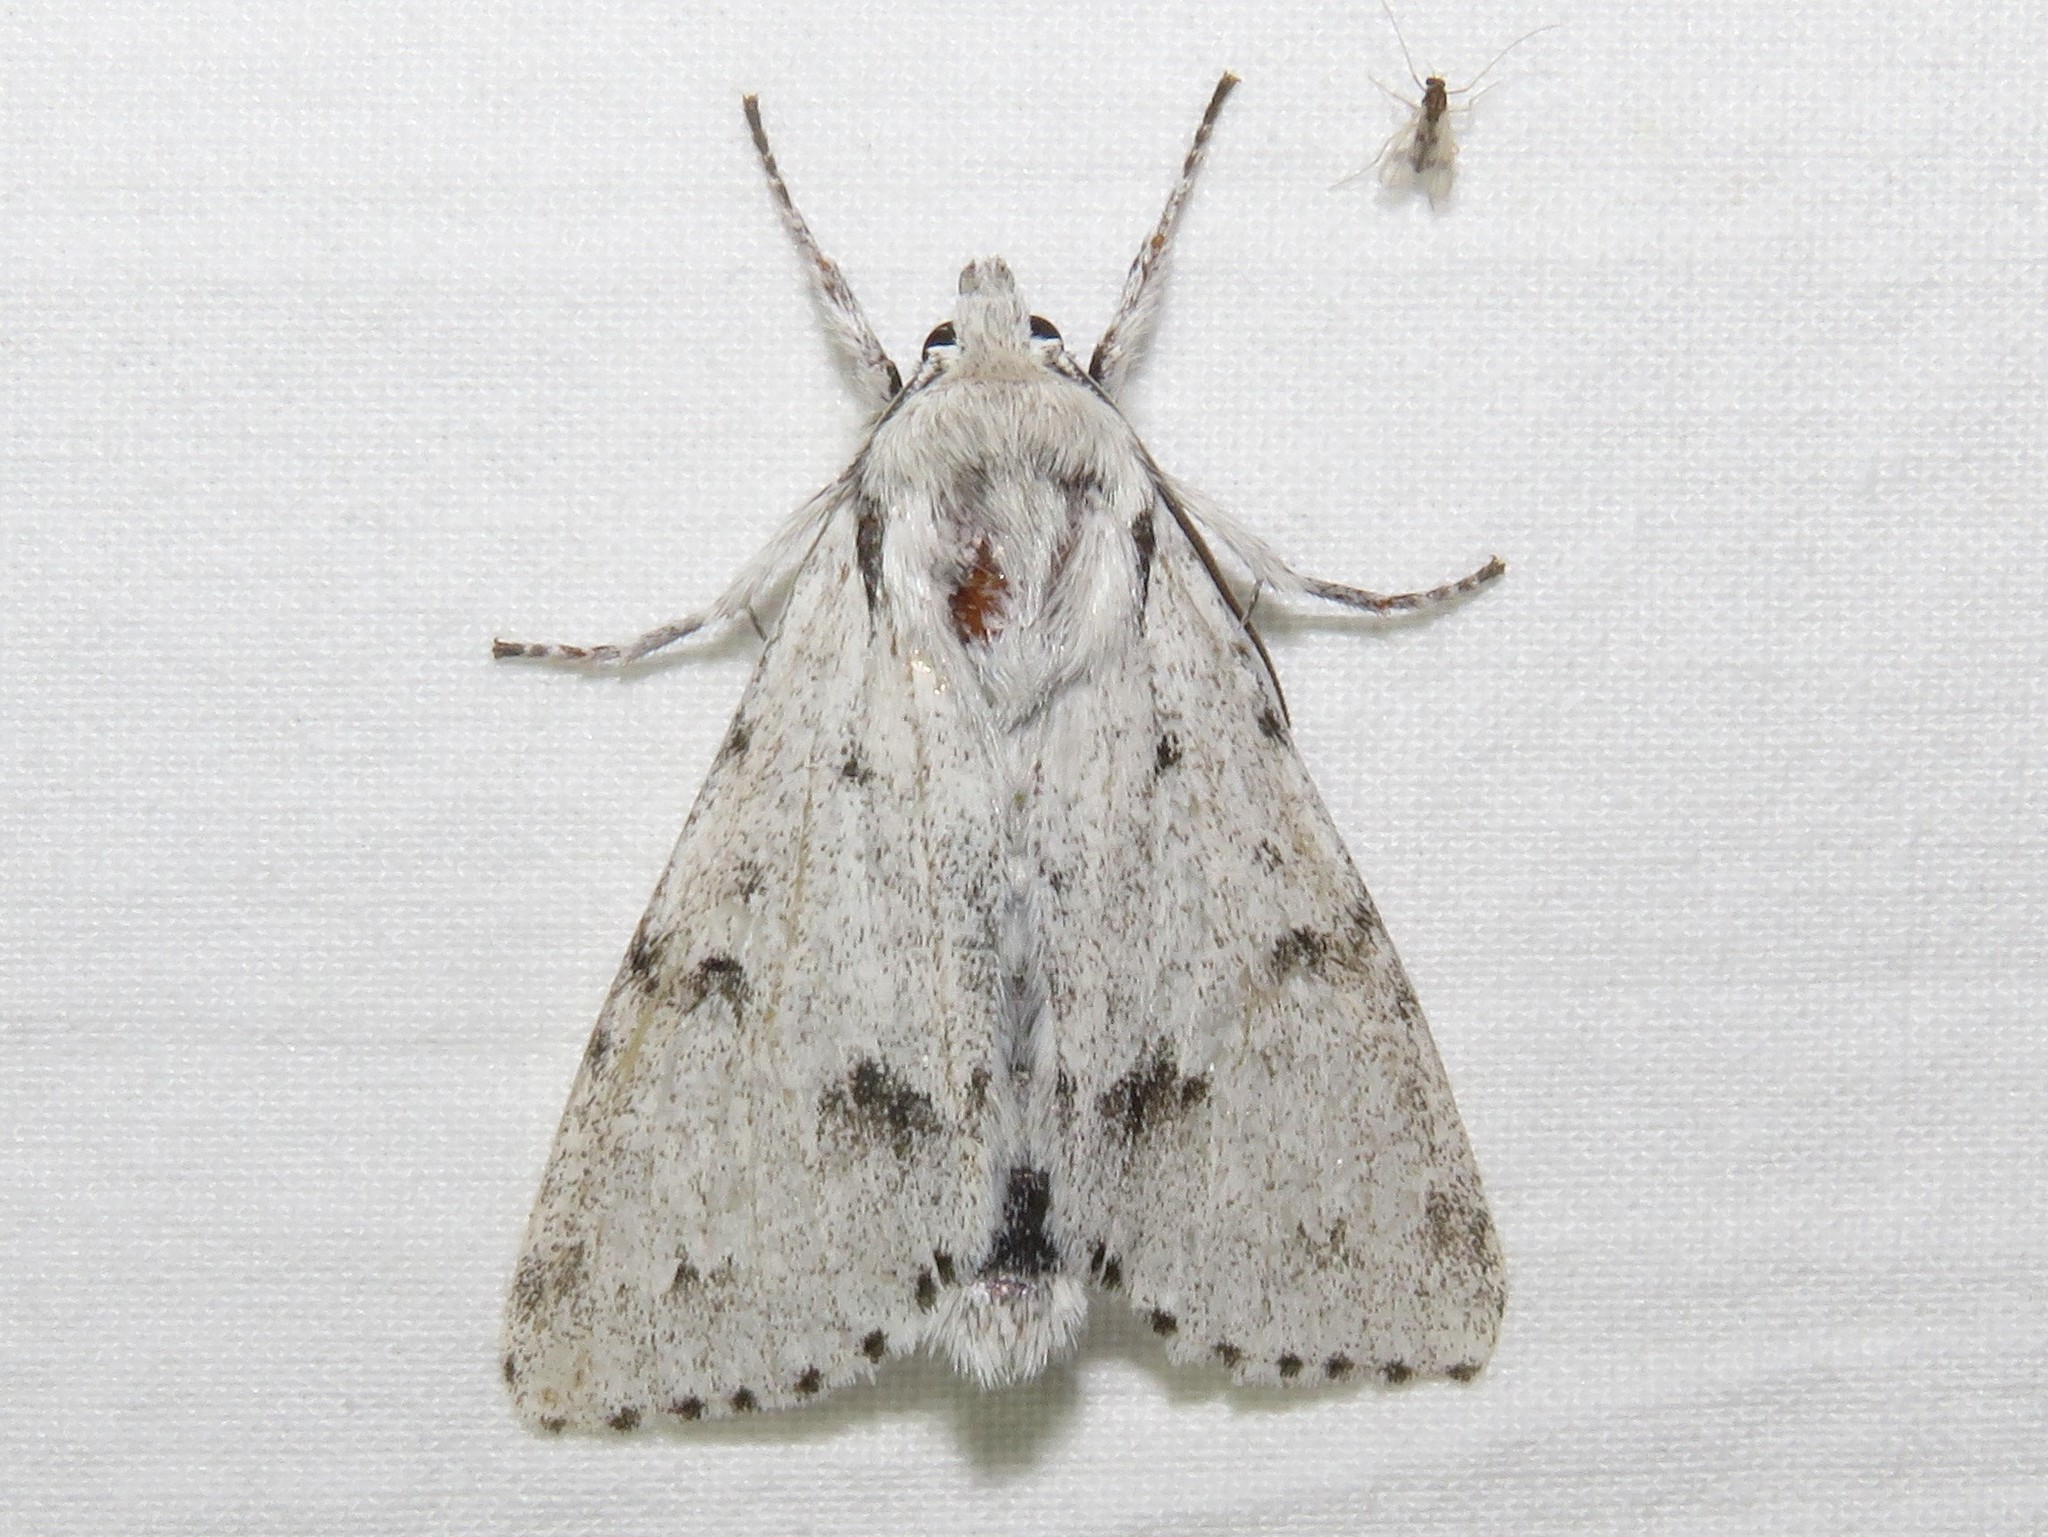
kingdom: Animalia
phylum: Arthropoda
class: Insecta
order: Lepidoptera
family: Noctuidae
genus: Acronicta
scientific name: Acronicta vulpina
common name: Miller dagger
